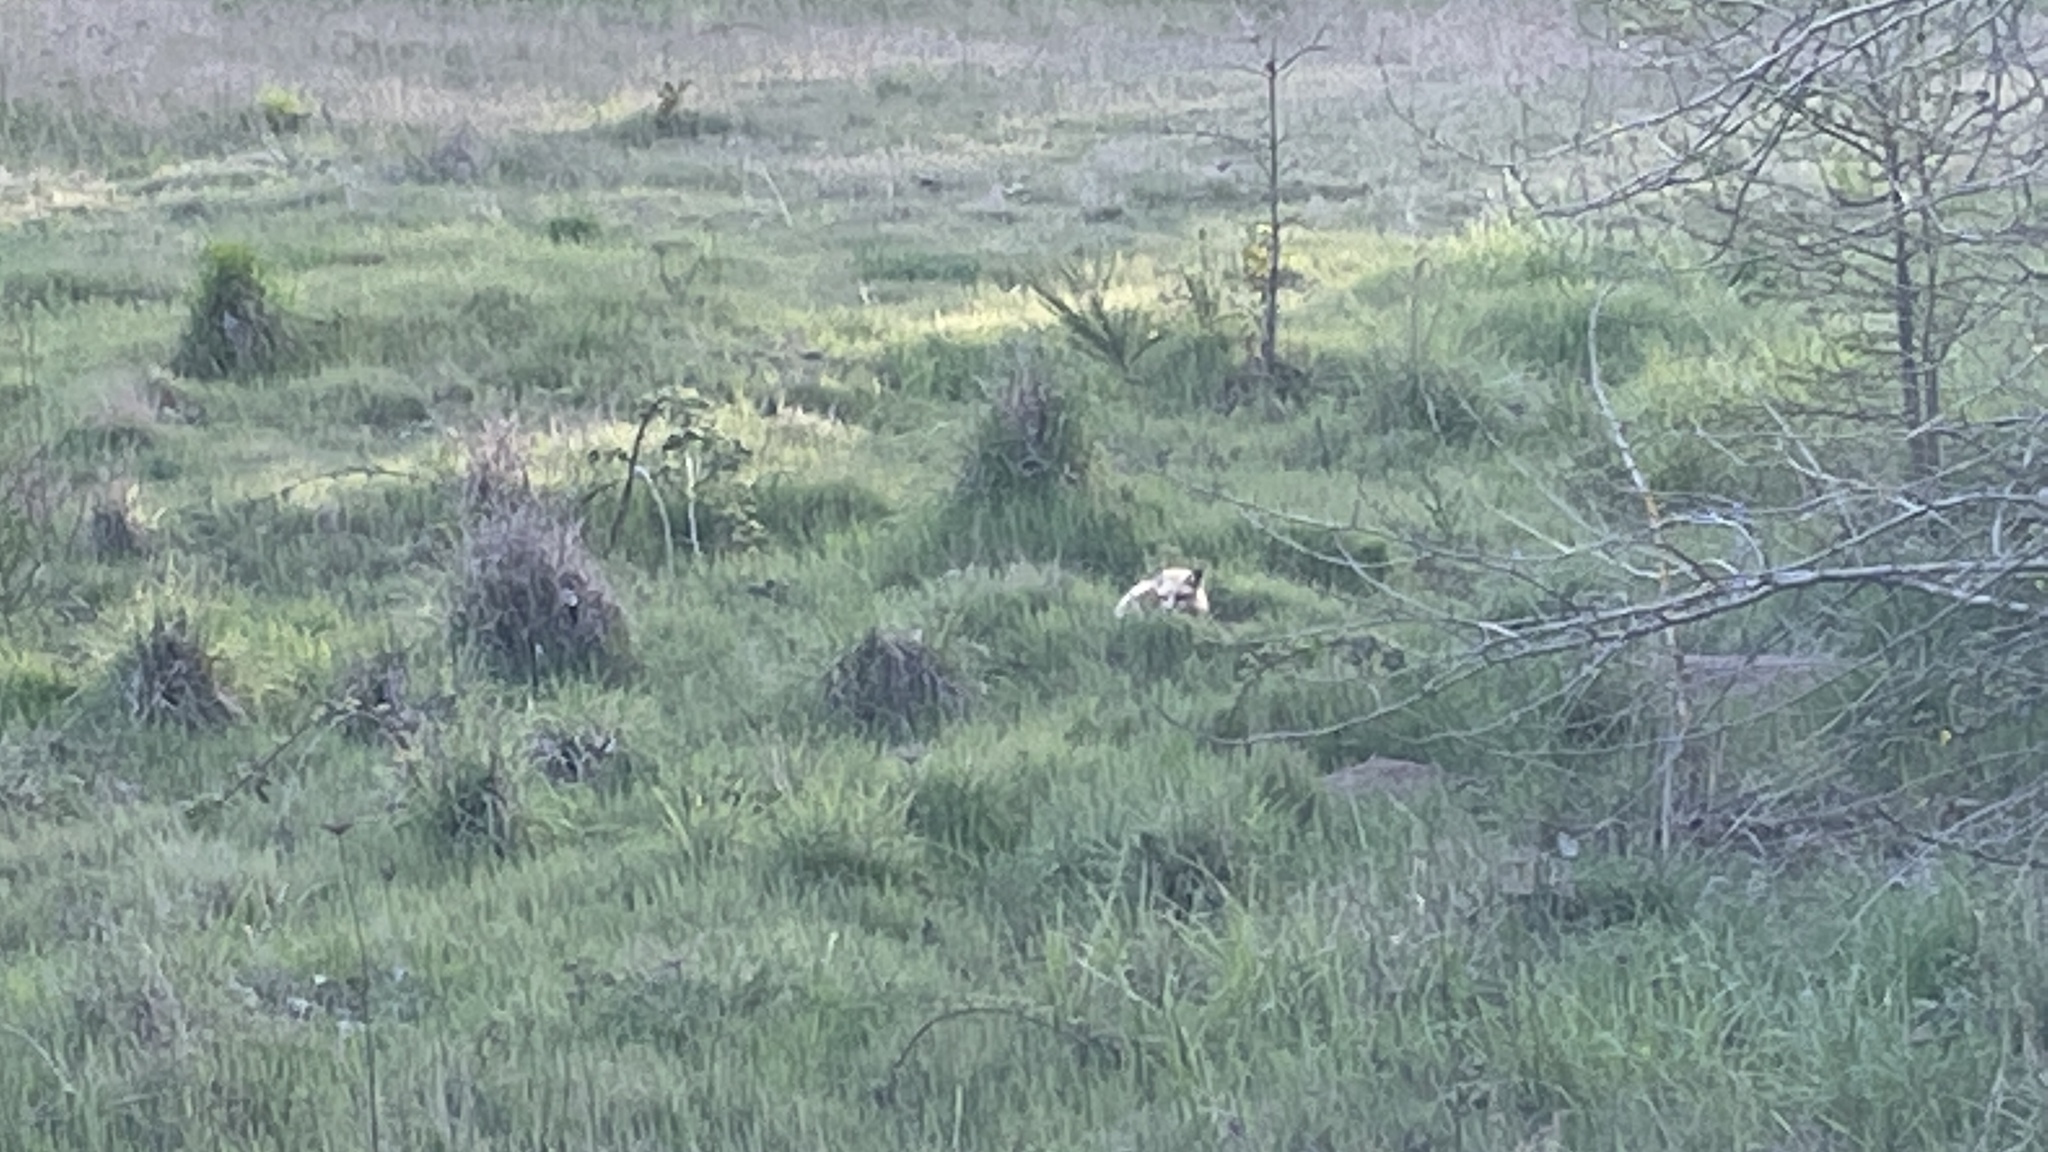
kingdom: Animalia
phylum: Chordata
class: Mammalia
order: Carnivora
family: Canidae
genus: Vulpes
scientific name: Vulpes vulpes
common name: Red fox
